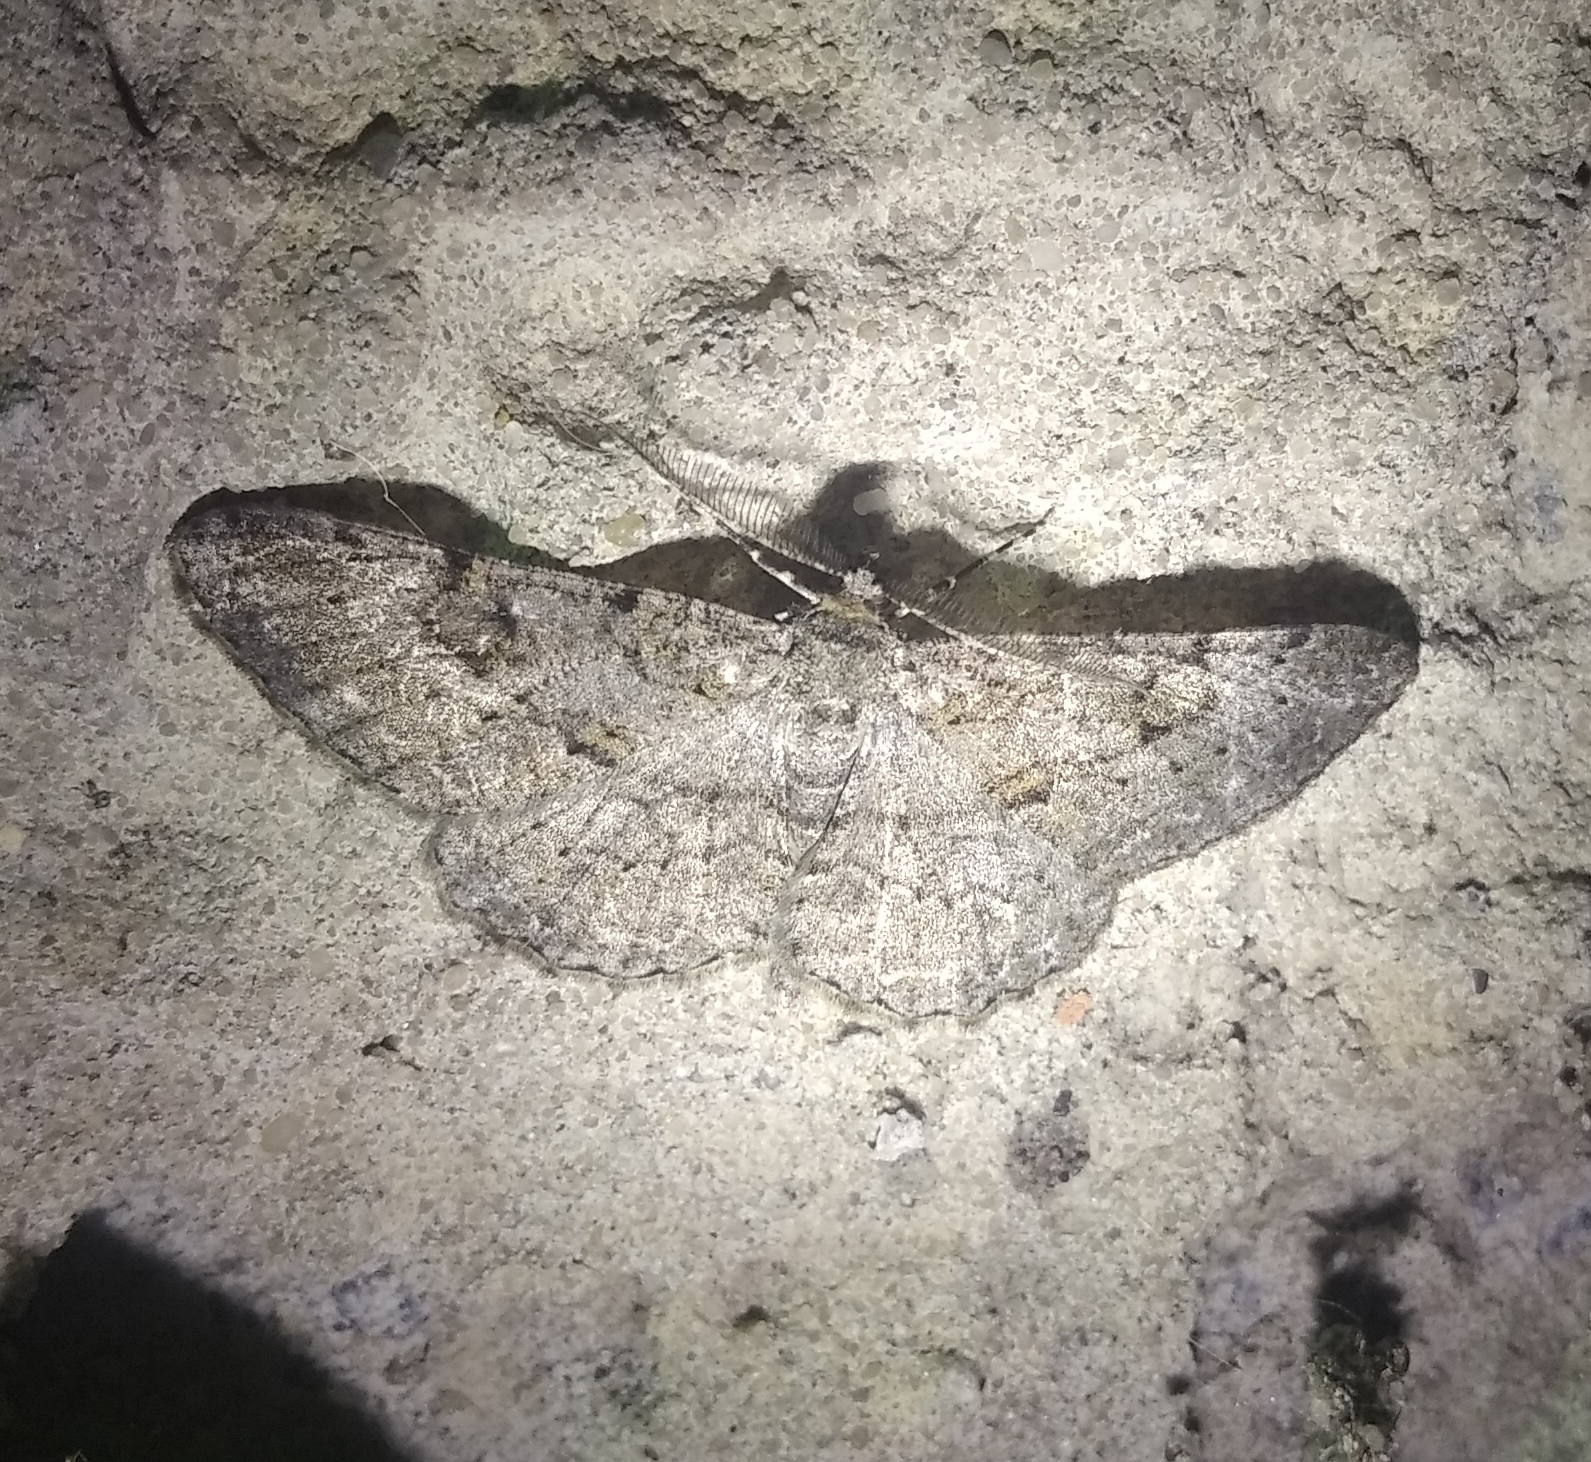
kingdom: Animalia
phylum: Arthropoda
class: Insecta
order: Lepidoptera
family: Geometridae
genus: Peribatodes
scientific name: Peribatodes rhomboidaria
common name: Willow beauty
